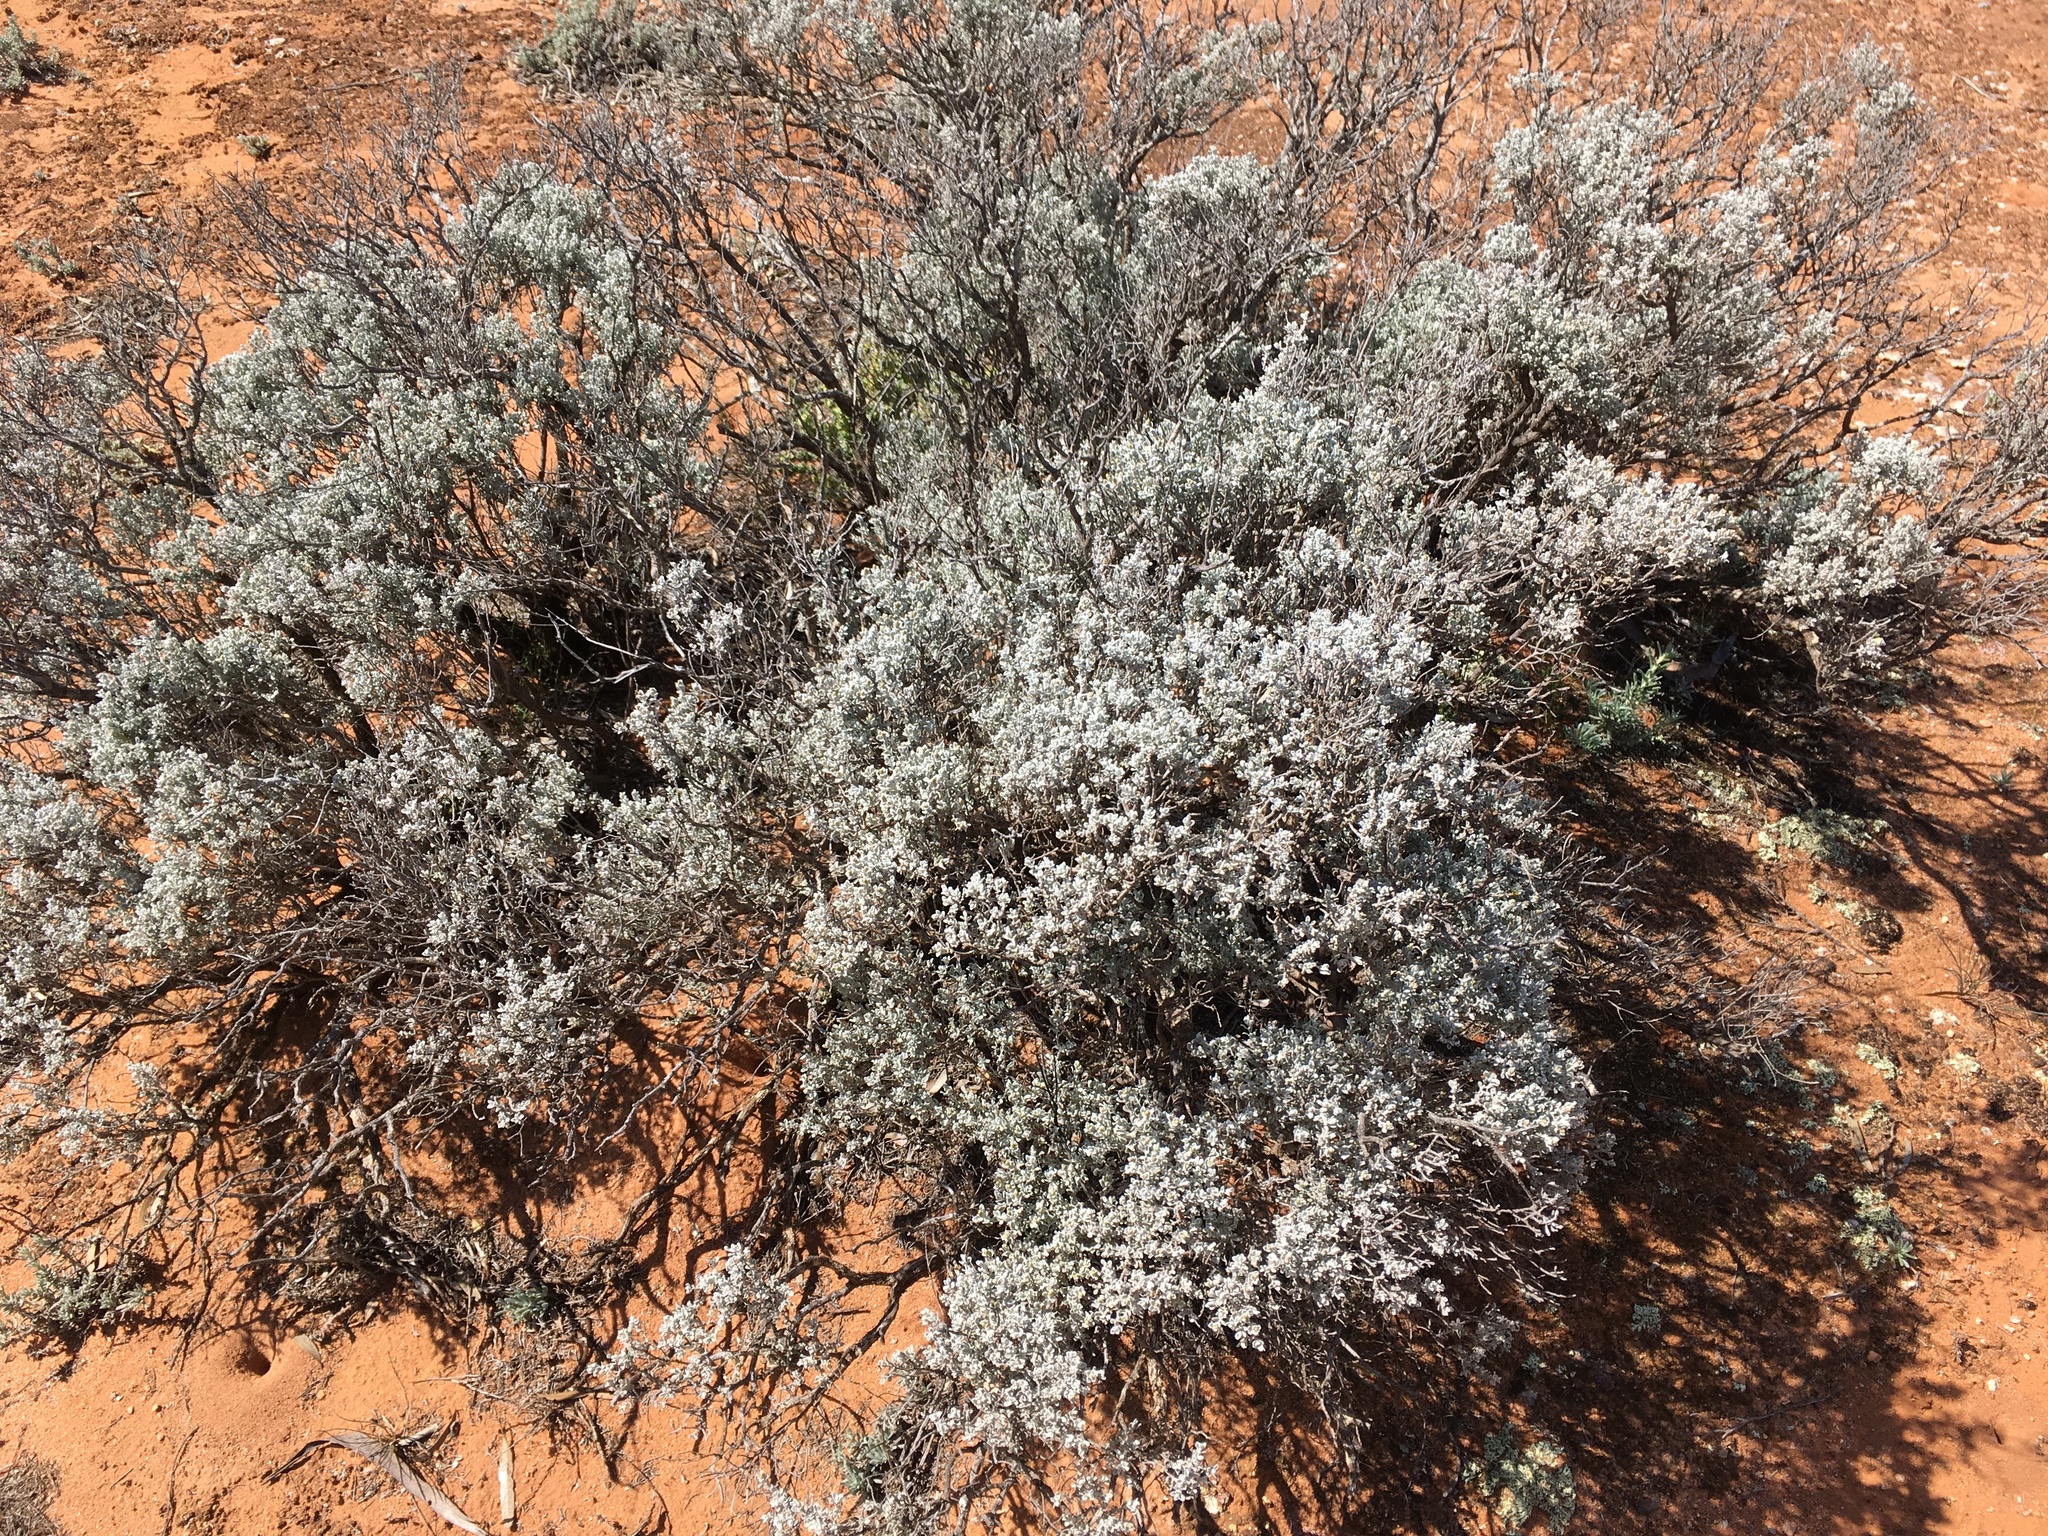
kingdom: Plantae
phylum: Tracheophyta
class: Magnoliopsida
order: Asterales
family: Asteraceae
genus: Cratystylis
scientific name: Cratystylis conocephala
